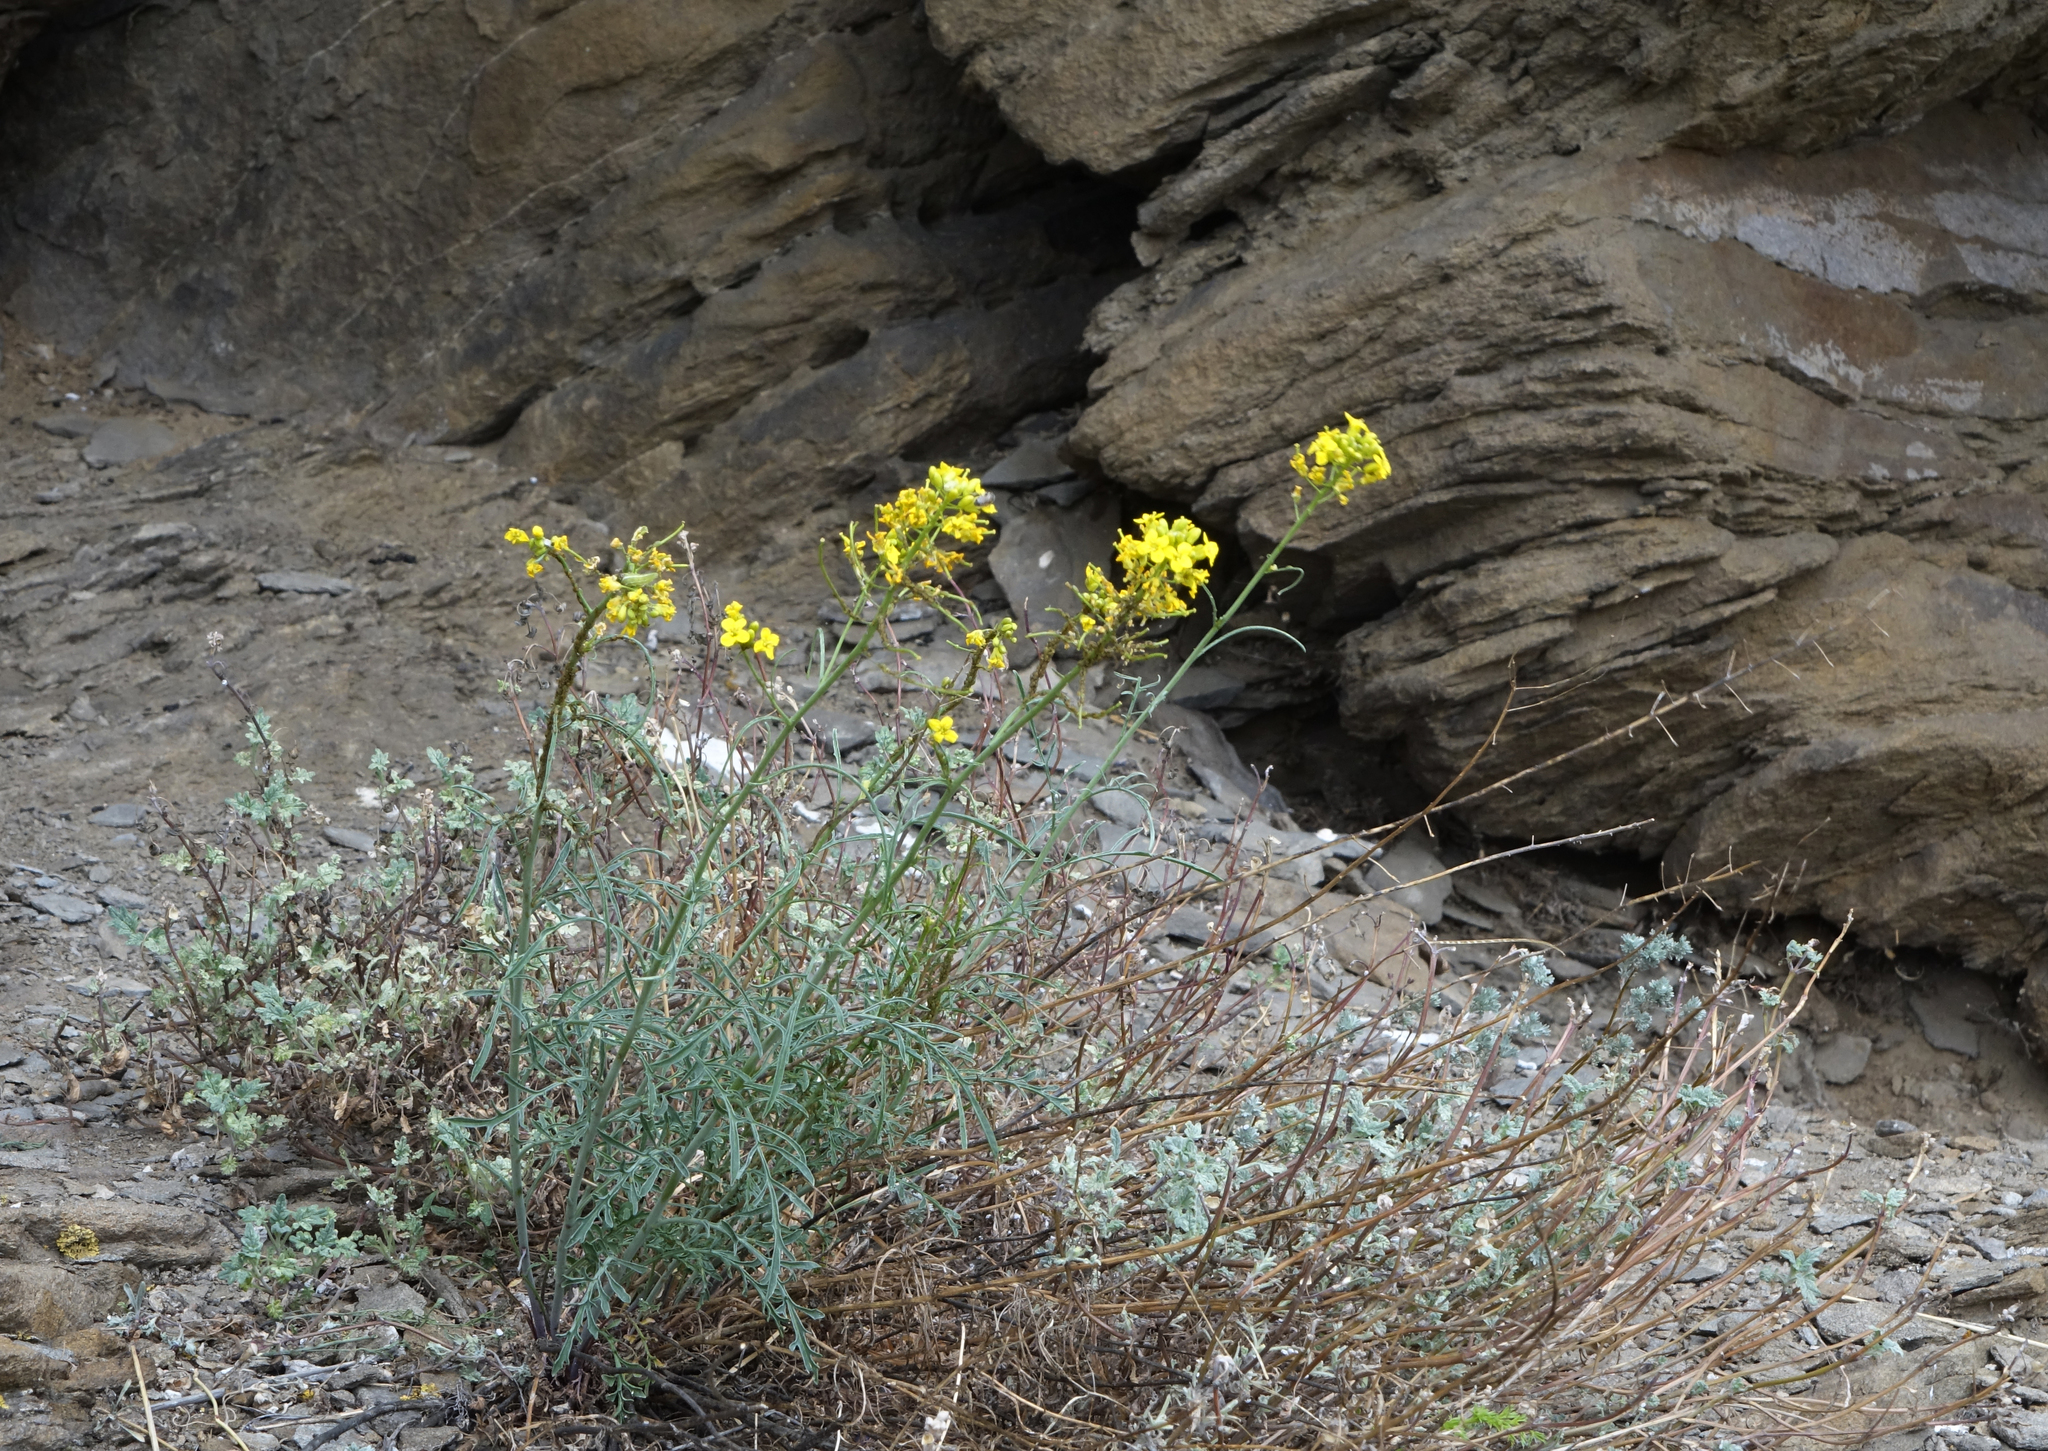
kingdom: Plantae
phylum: Tracheophyta
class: Magnoliopsida
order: Brassicales
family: Brassicaceae
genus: Sisymbrium
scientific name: Sisymbrium polymorphum
